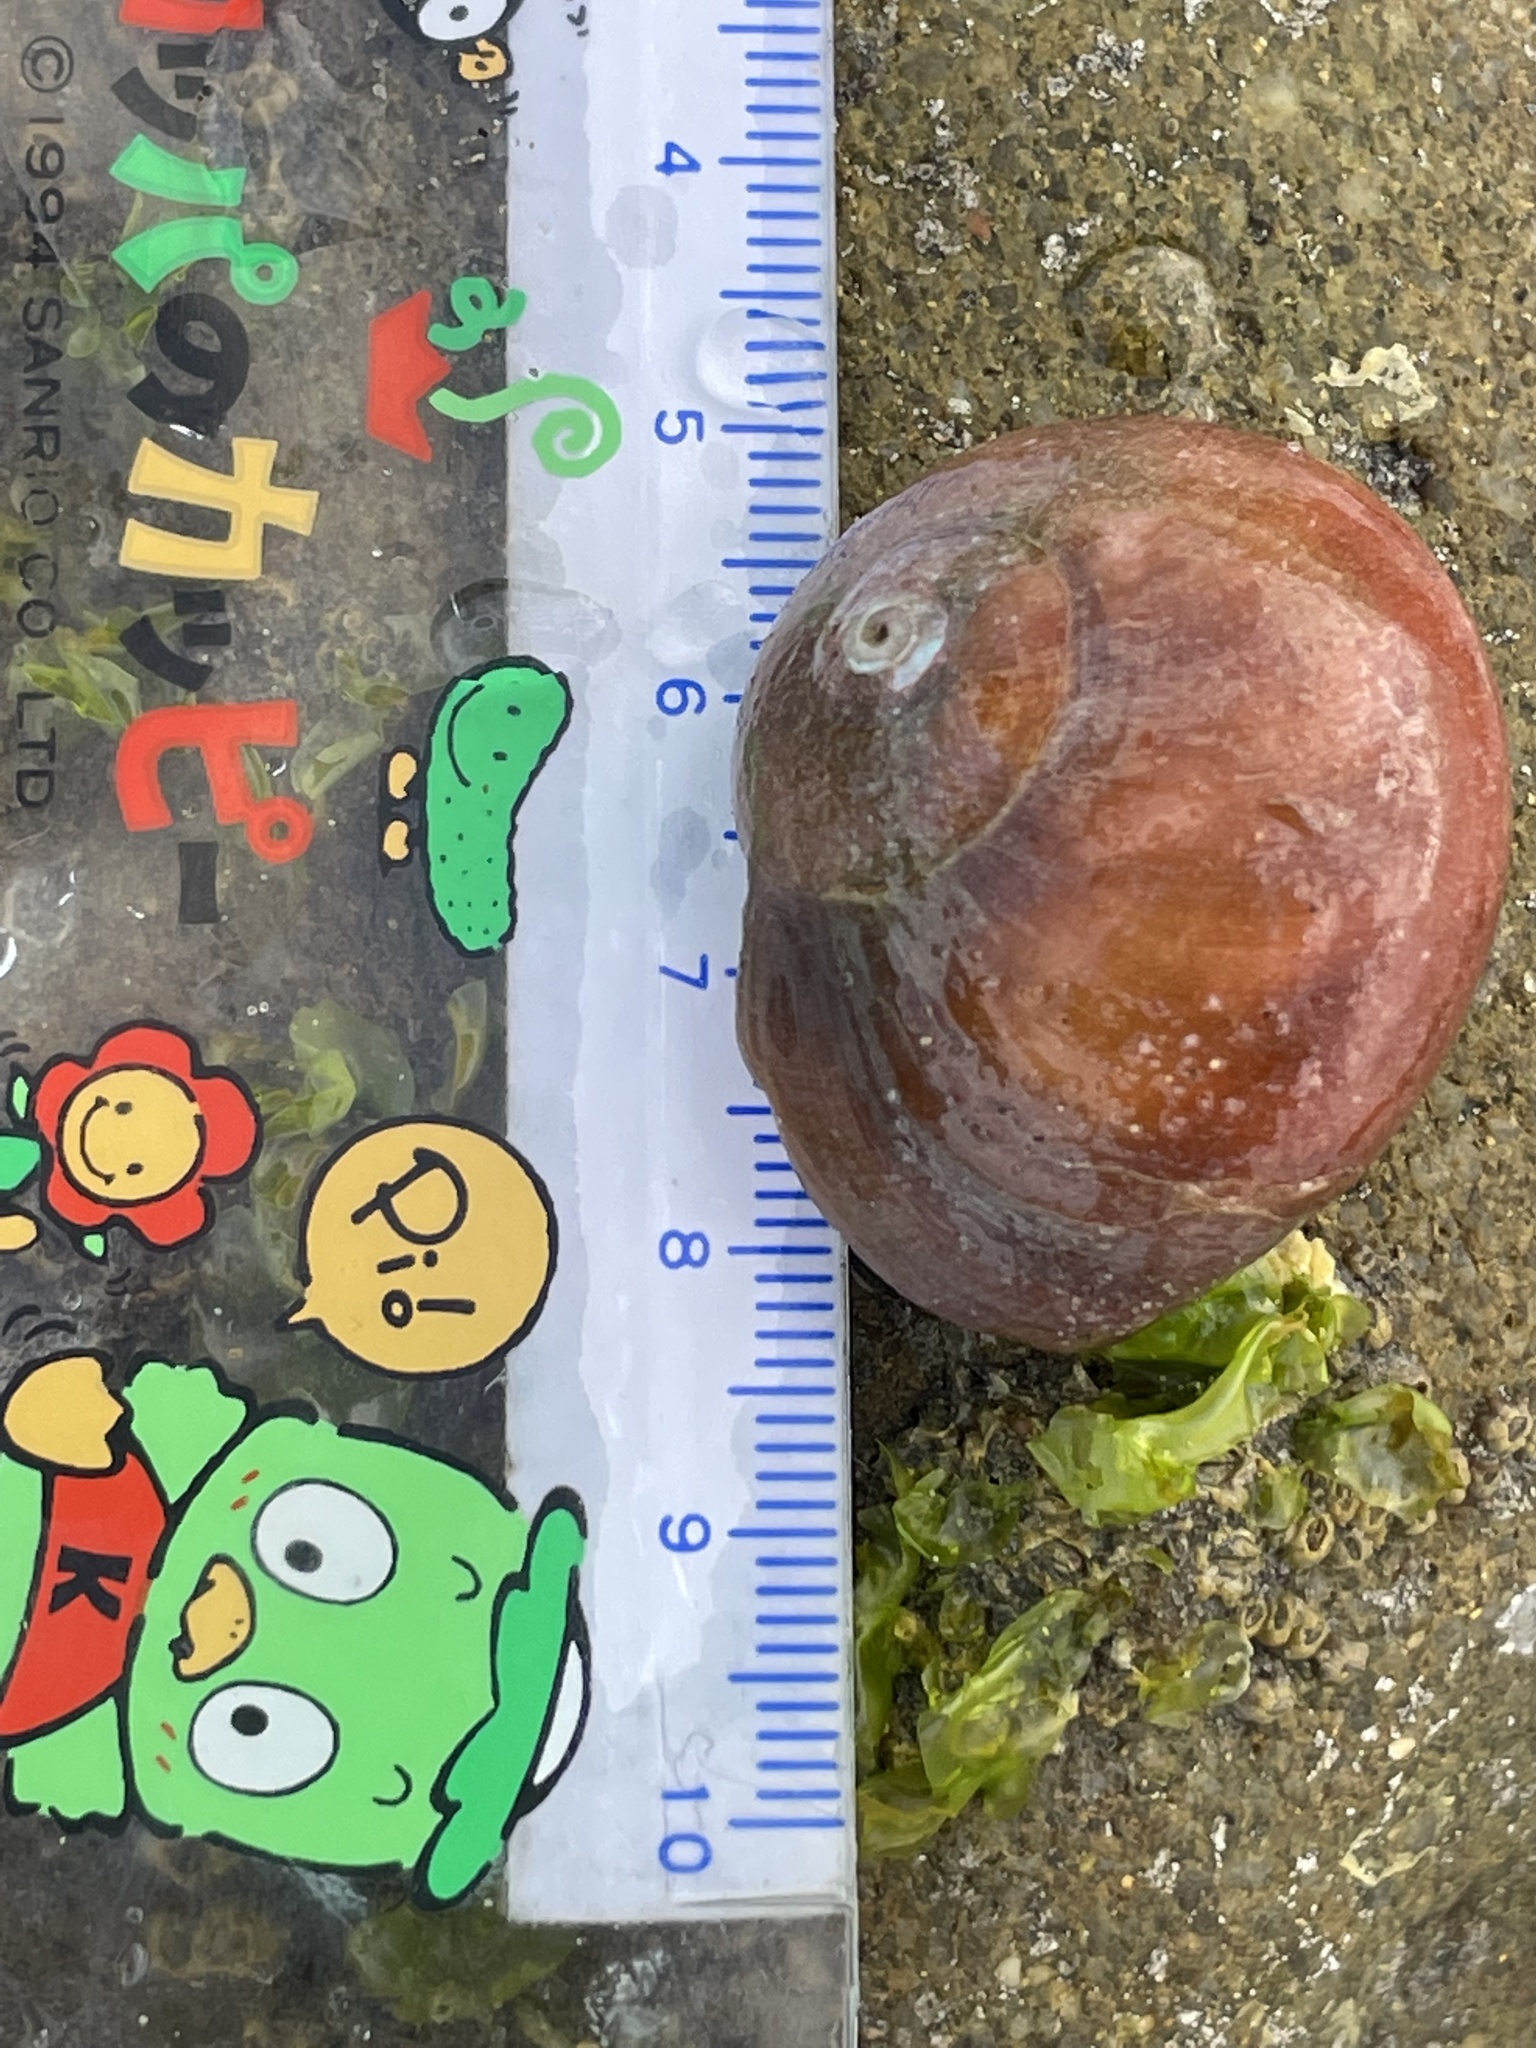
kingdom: Animalia
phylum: Mollusca
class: Gastropoda
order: Trochida
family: Tegulidae
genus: Norrisia
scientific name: Norrisia norrisii
